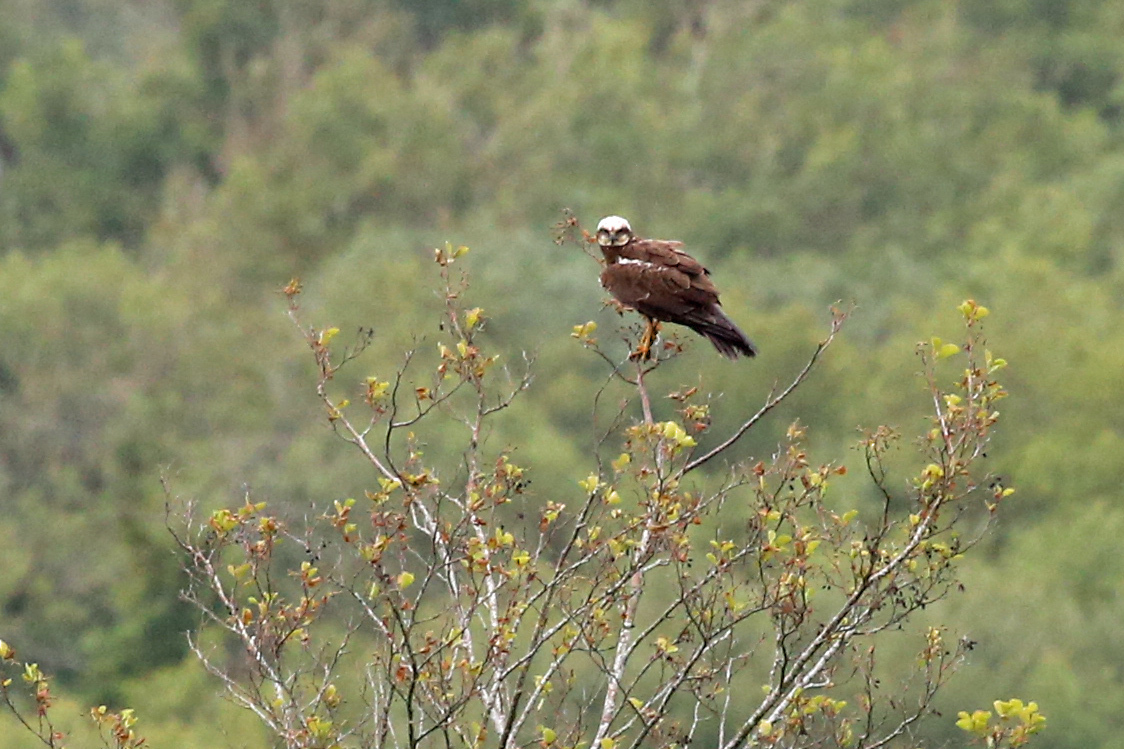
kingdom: Animalia
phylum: Chordata
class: Aves
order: Accipitriformes
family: Accipitridae
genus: Circus
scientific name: Circus aeruginosus
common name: Western marsh harrier
